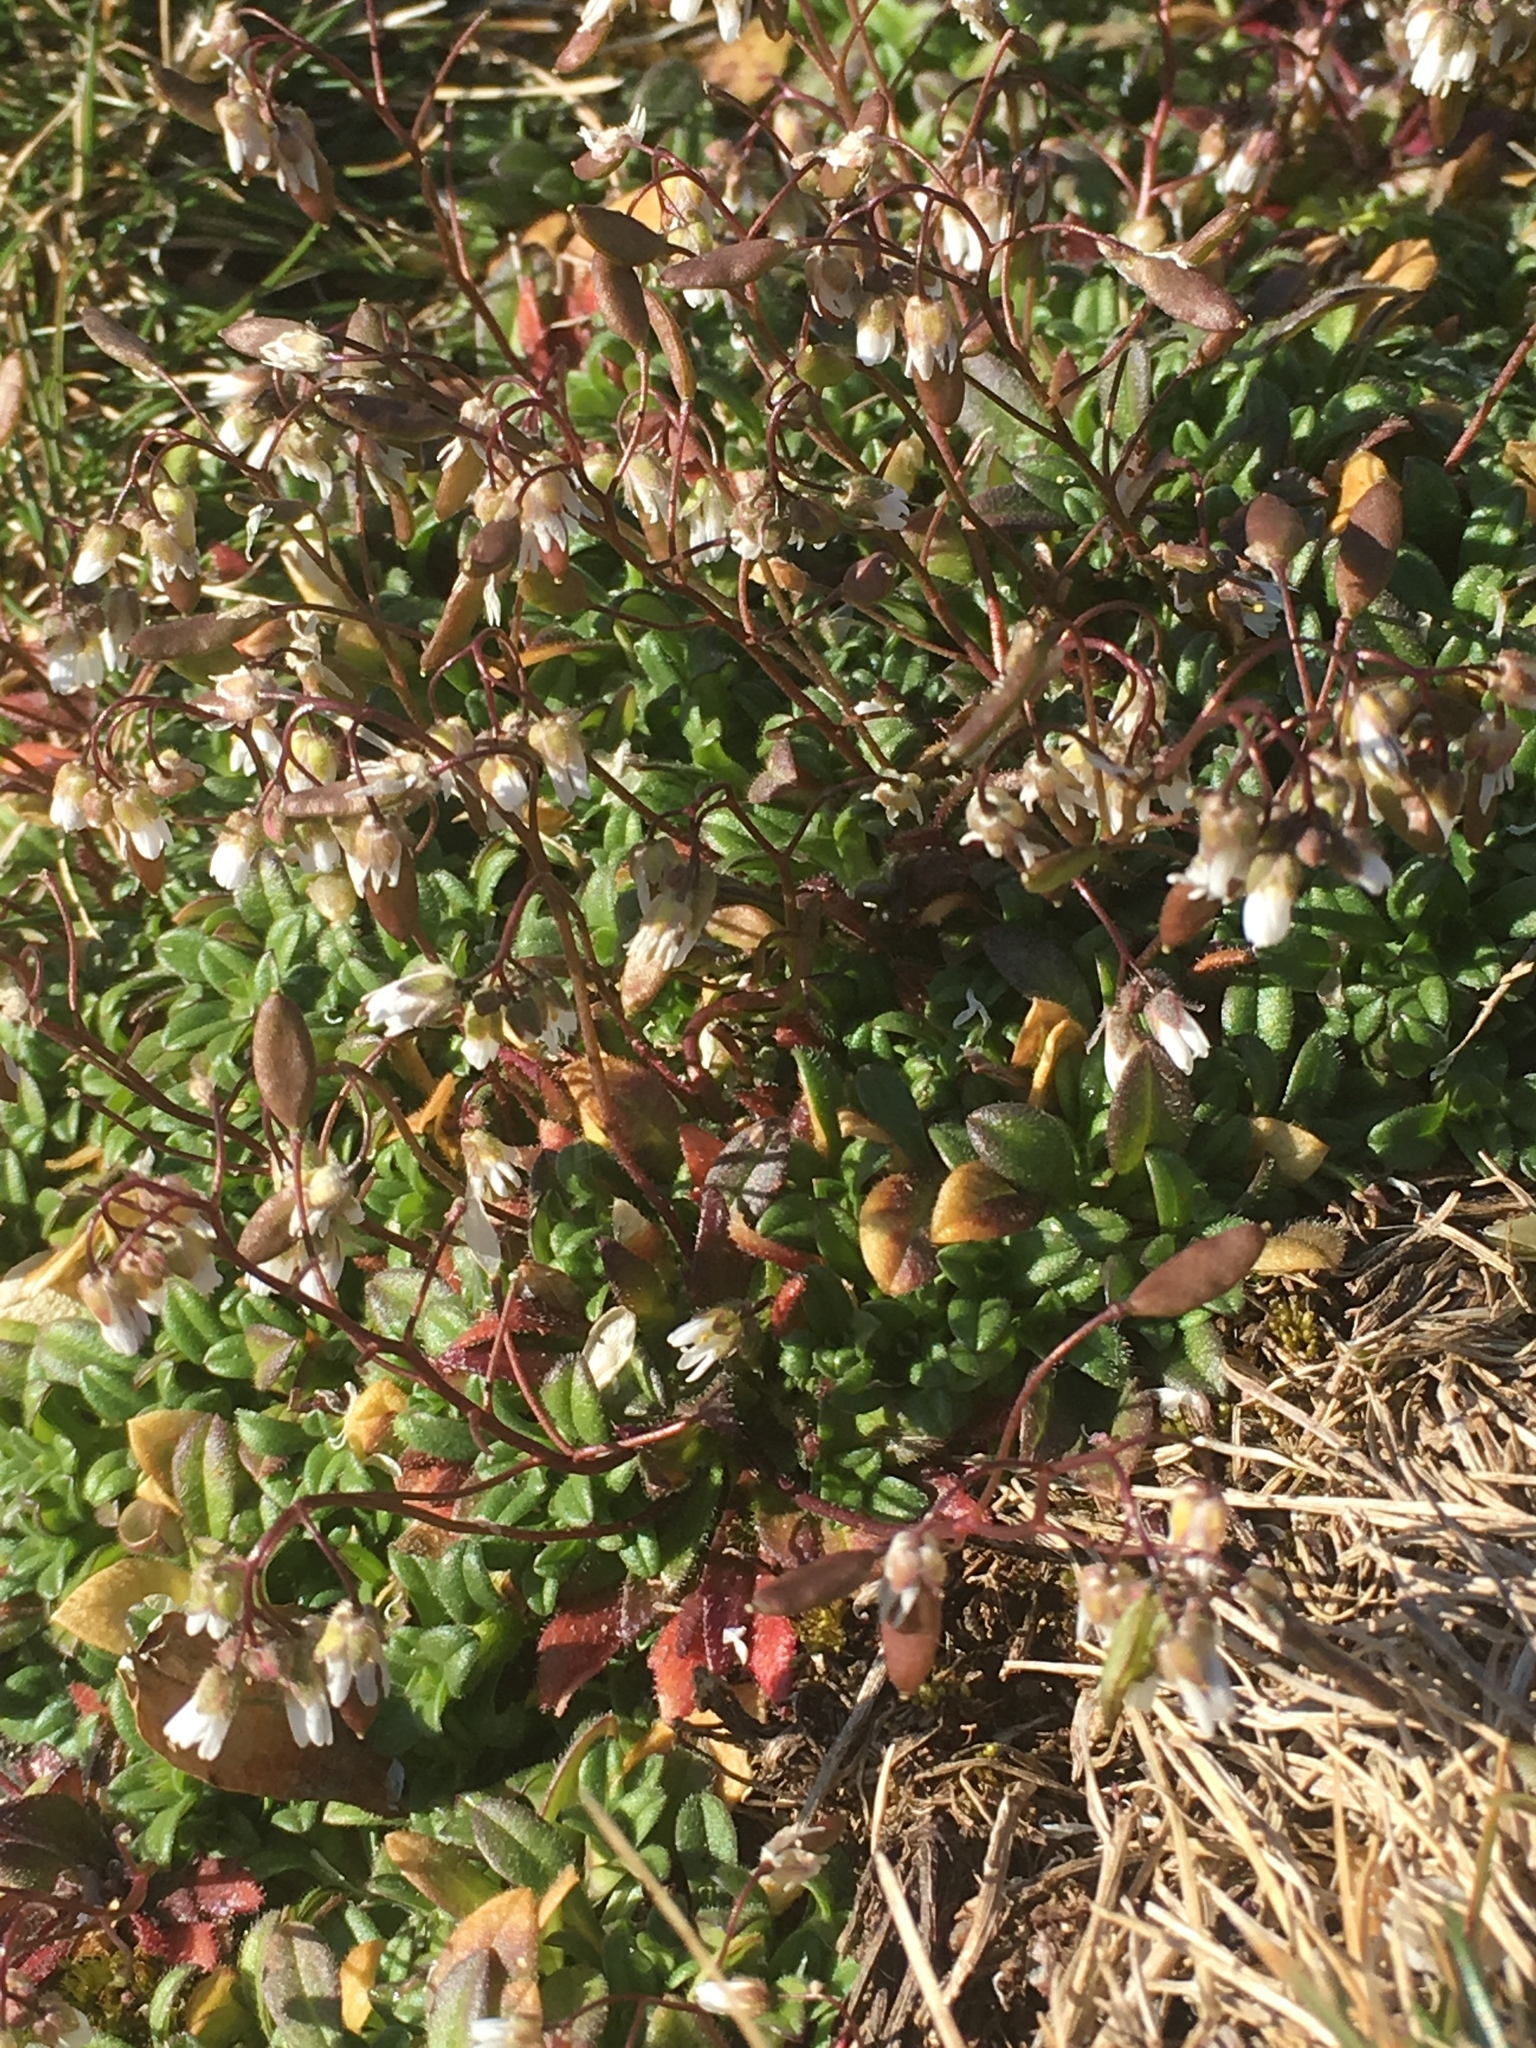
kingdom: Plantae
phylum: Tracheophyta
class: Magnoliopsida
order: Brassicales
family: Brassicaceae
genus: Draba
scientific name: Draba verna
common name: Spring draba
